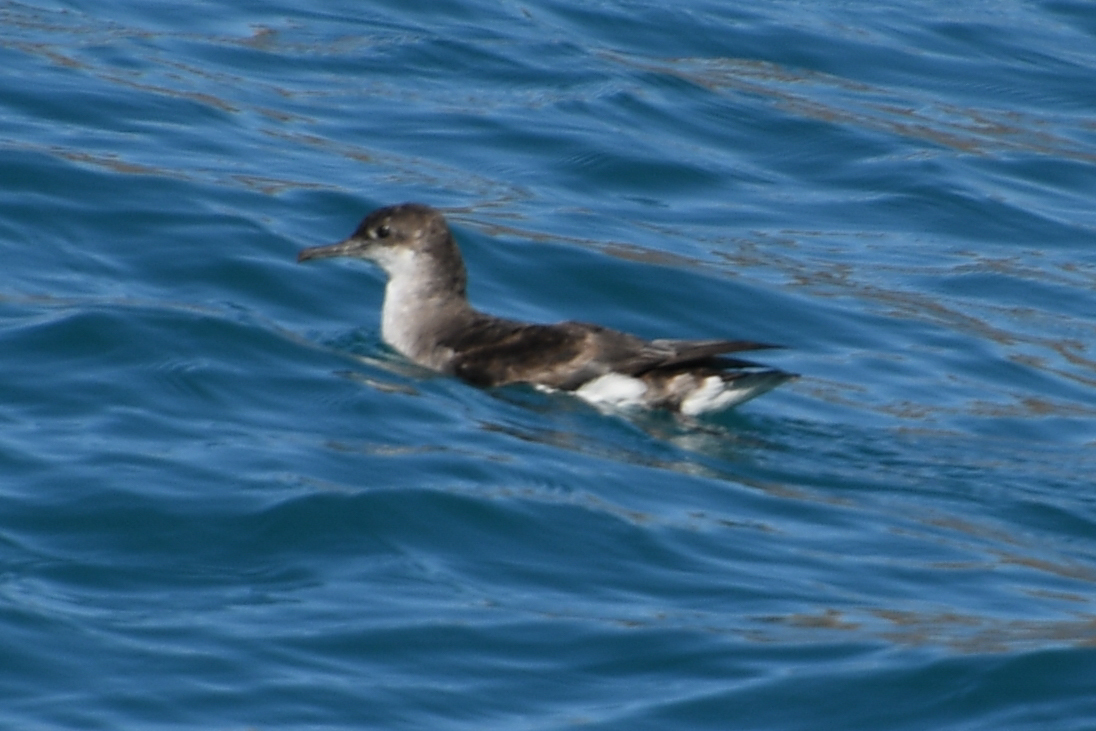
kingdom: Animalia
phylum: Chordata
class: Aves
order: Procellariiformes
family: Procellariidae
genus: Puffinus
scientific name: Puffinus gavia
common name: Fluttering shearwater
